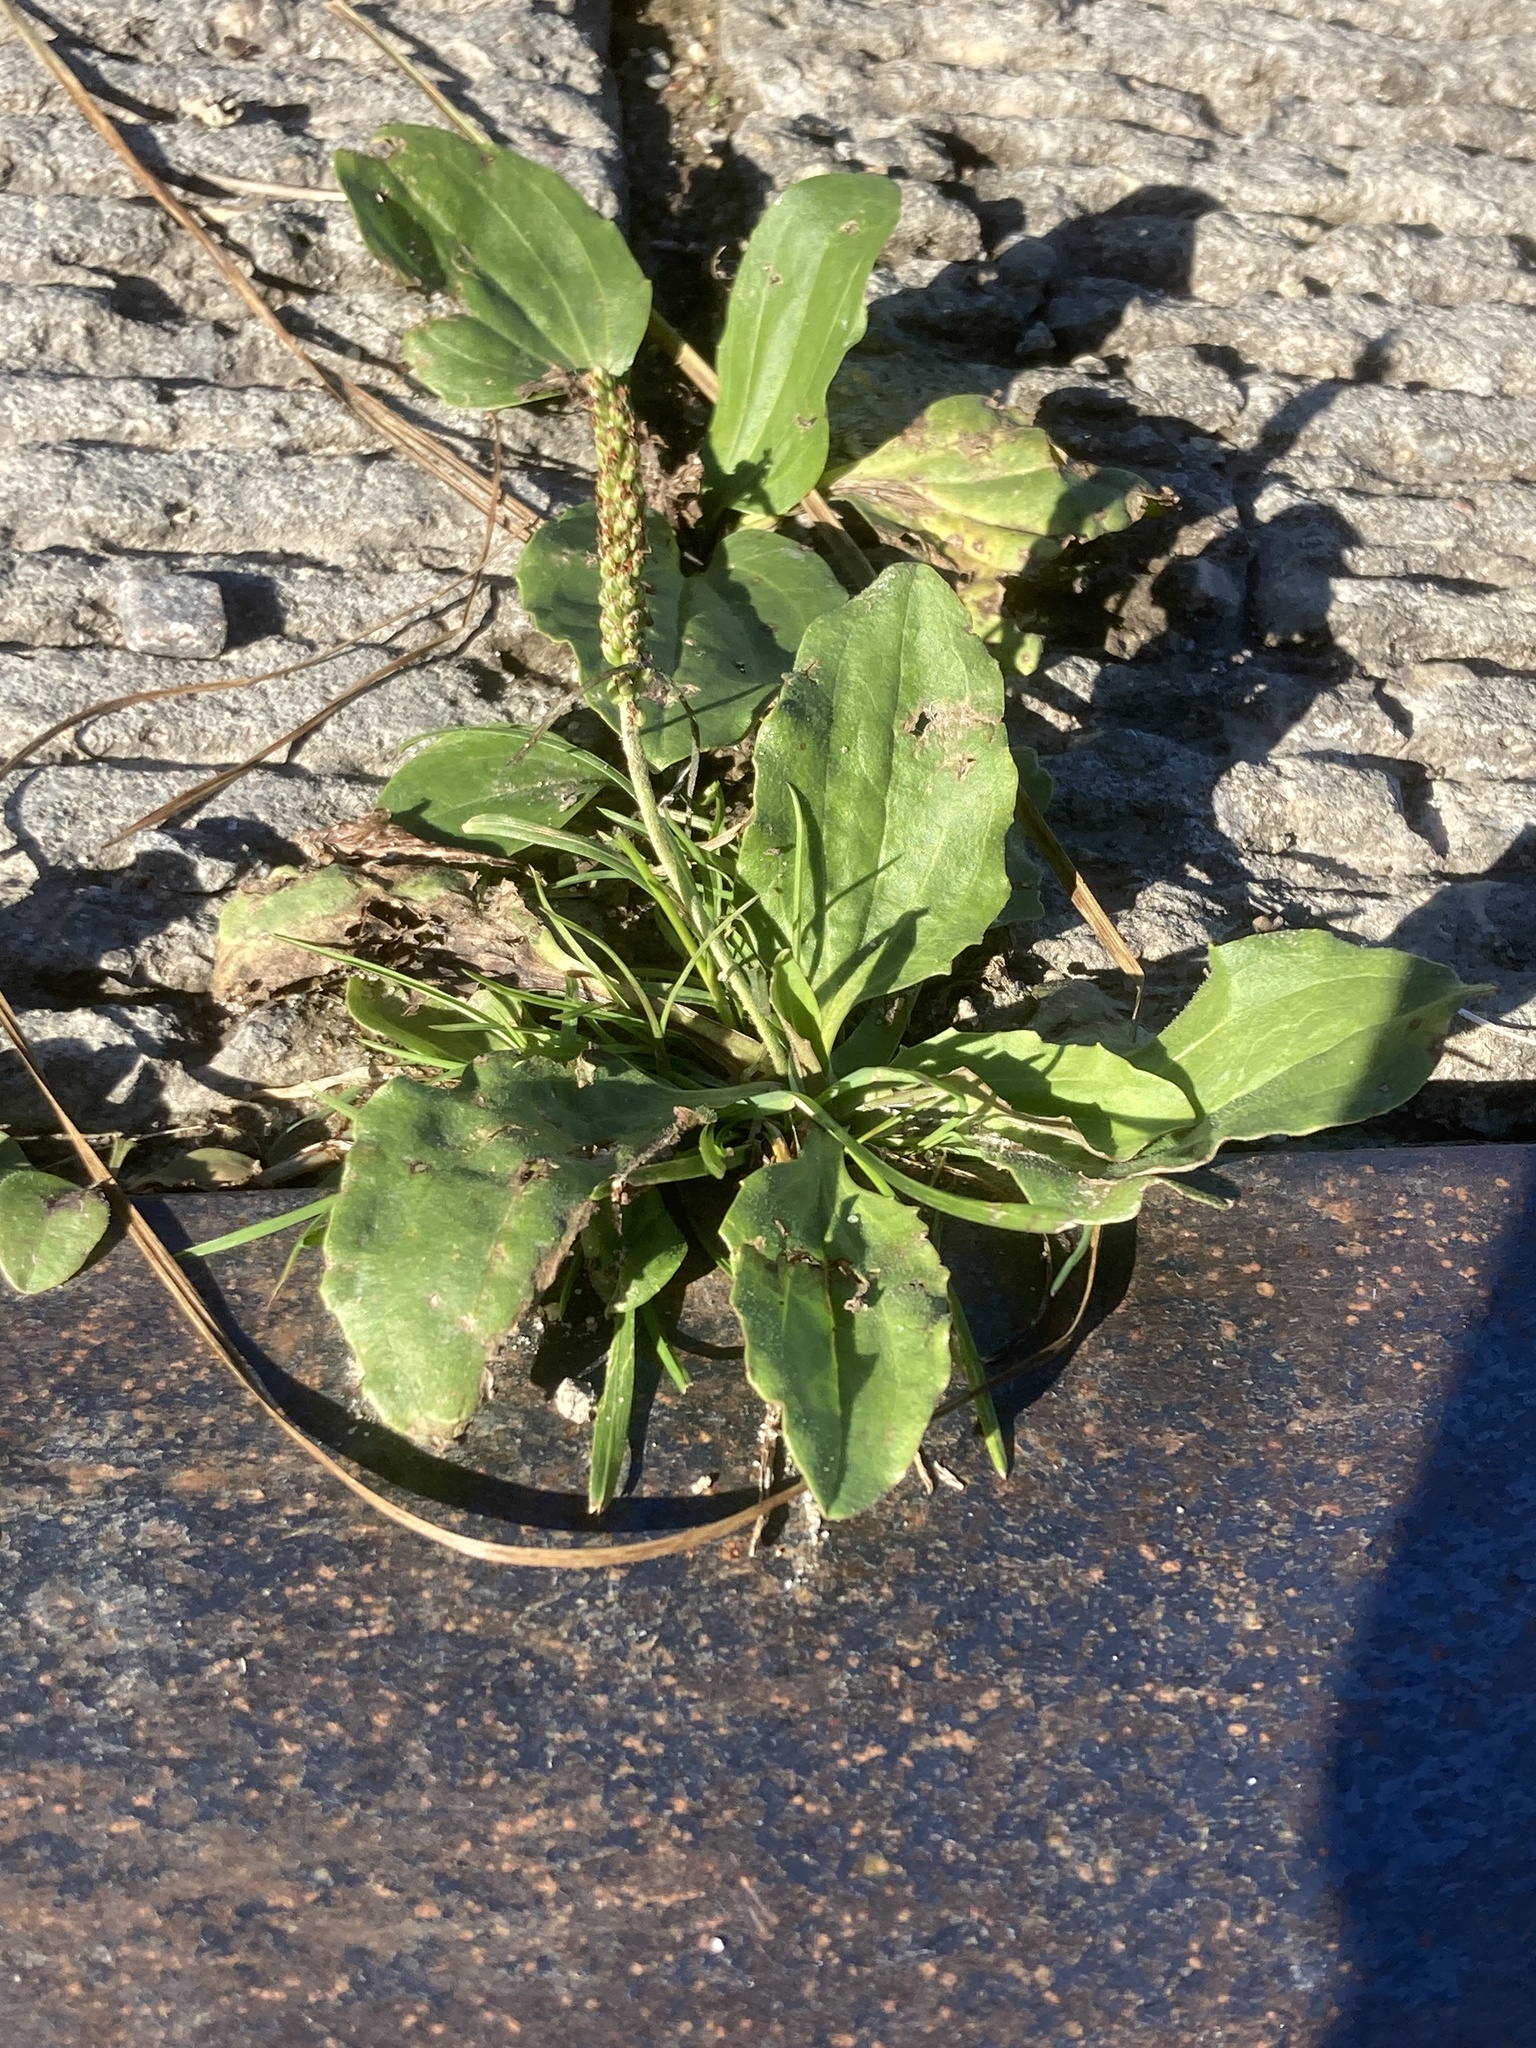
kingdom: Plantae
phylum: Tracheophyta
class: Magnoliopsida
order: Lamiales
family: Plantaginaceae
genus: Plantago
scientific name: Plantago major
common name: Common plantain
